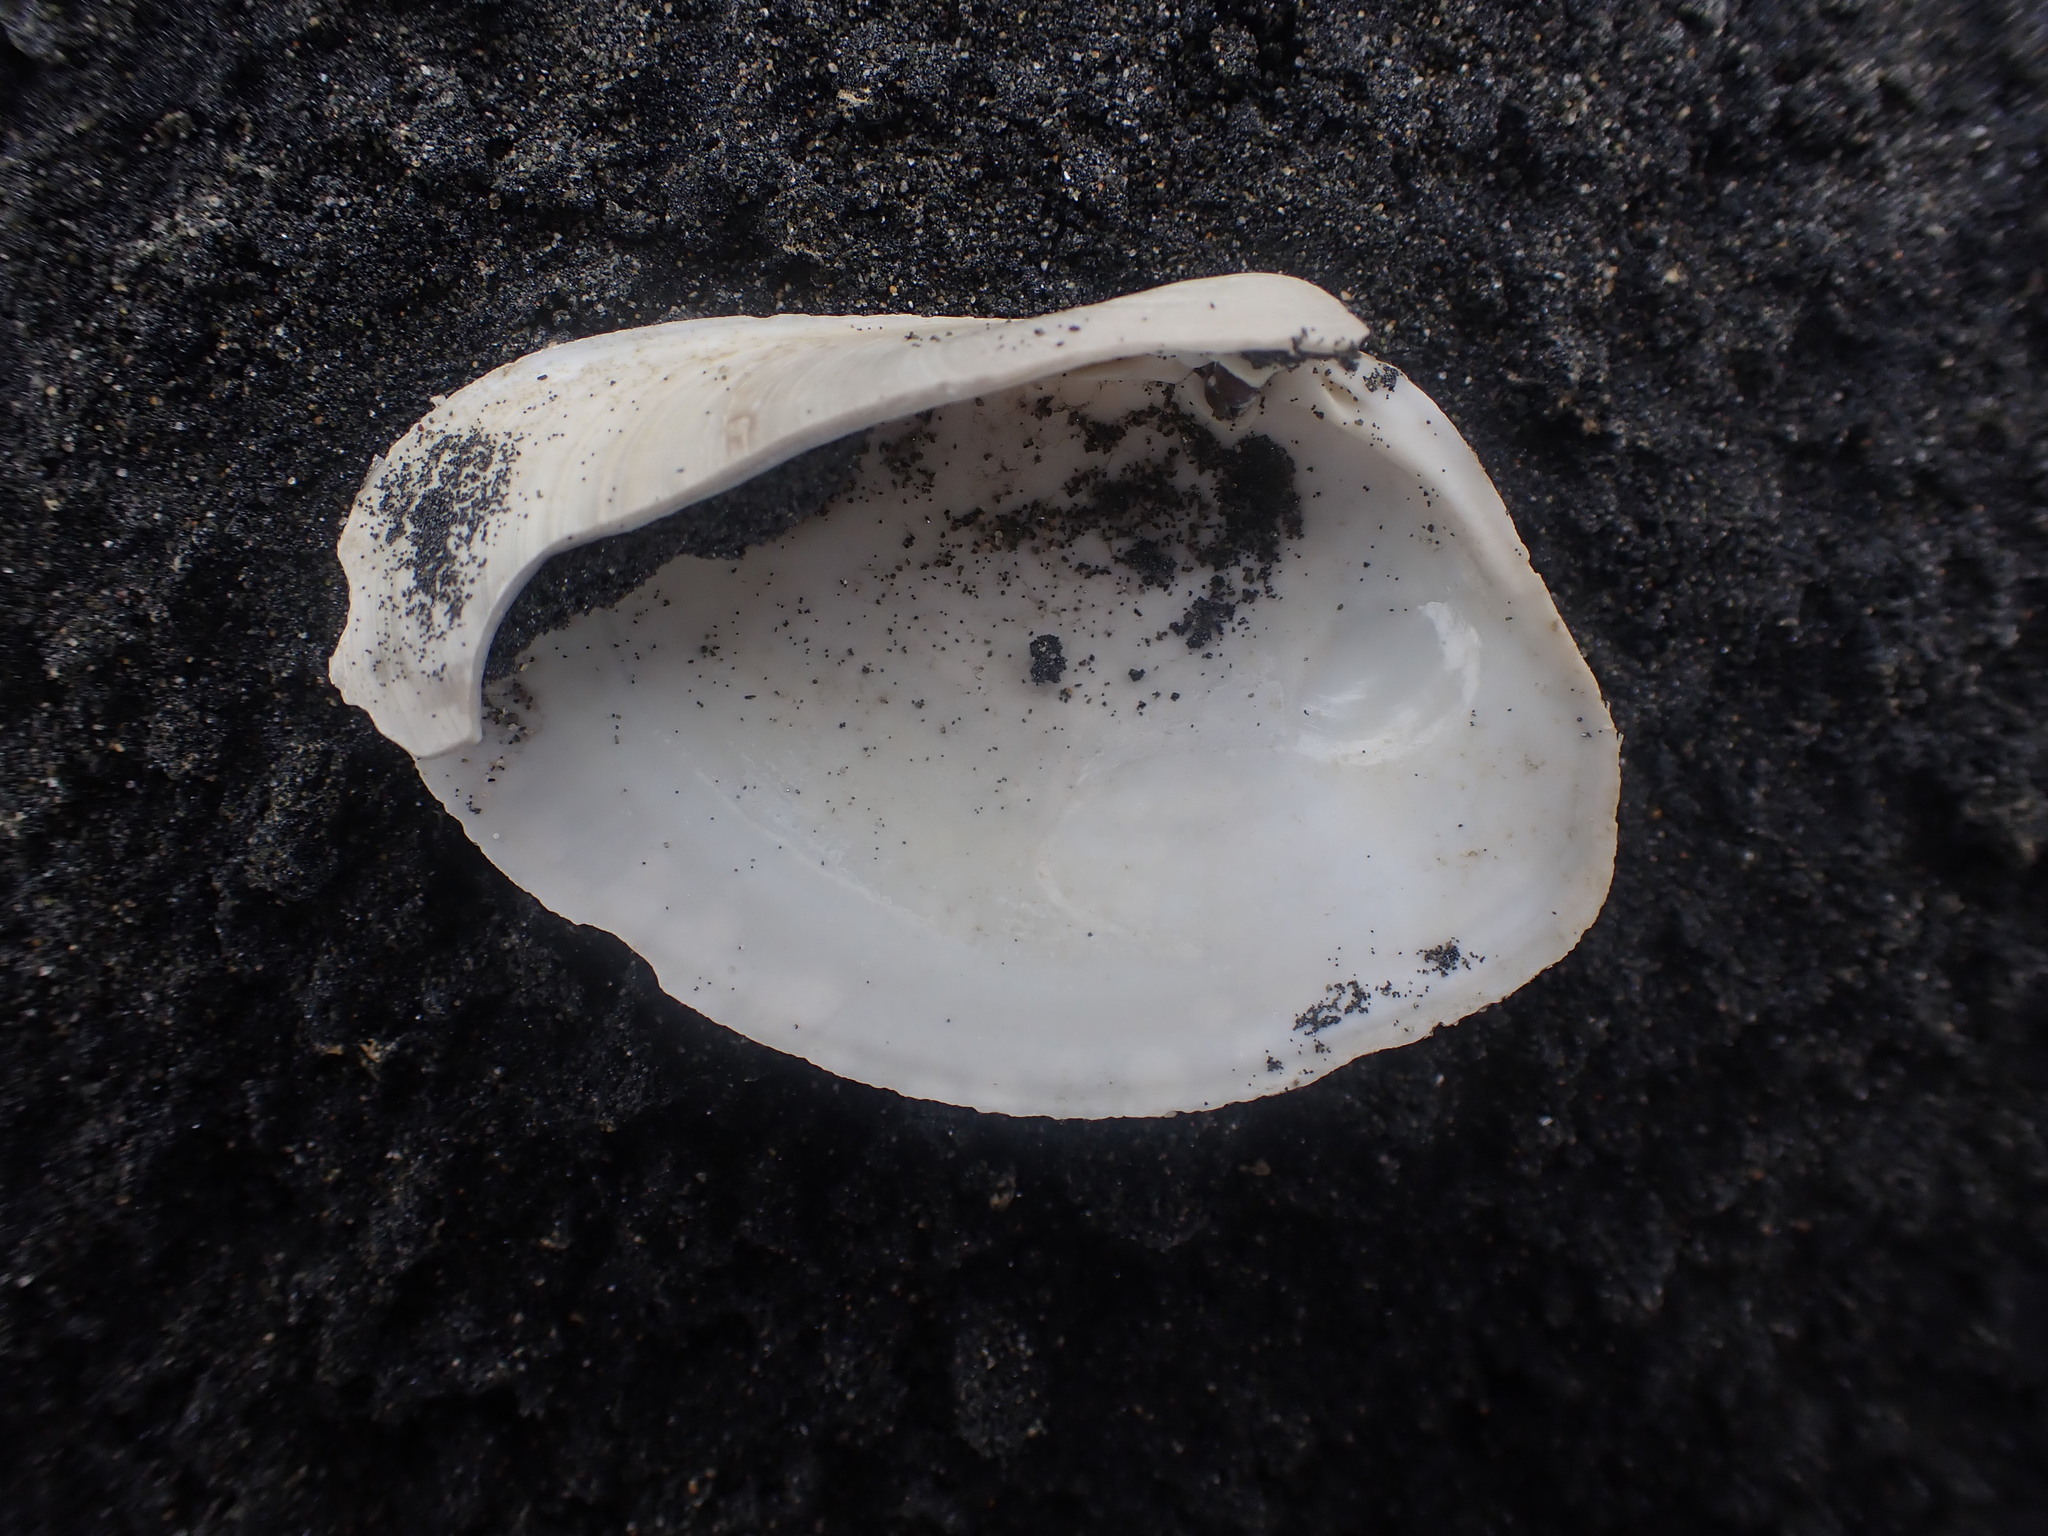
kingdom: Animalia
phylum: Mollusca
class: Bivalvia
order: Venerida
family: Mesodesmatidae
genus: Paphies
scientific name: Paphies ventricosa
